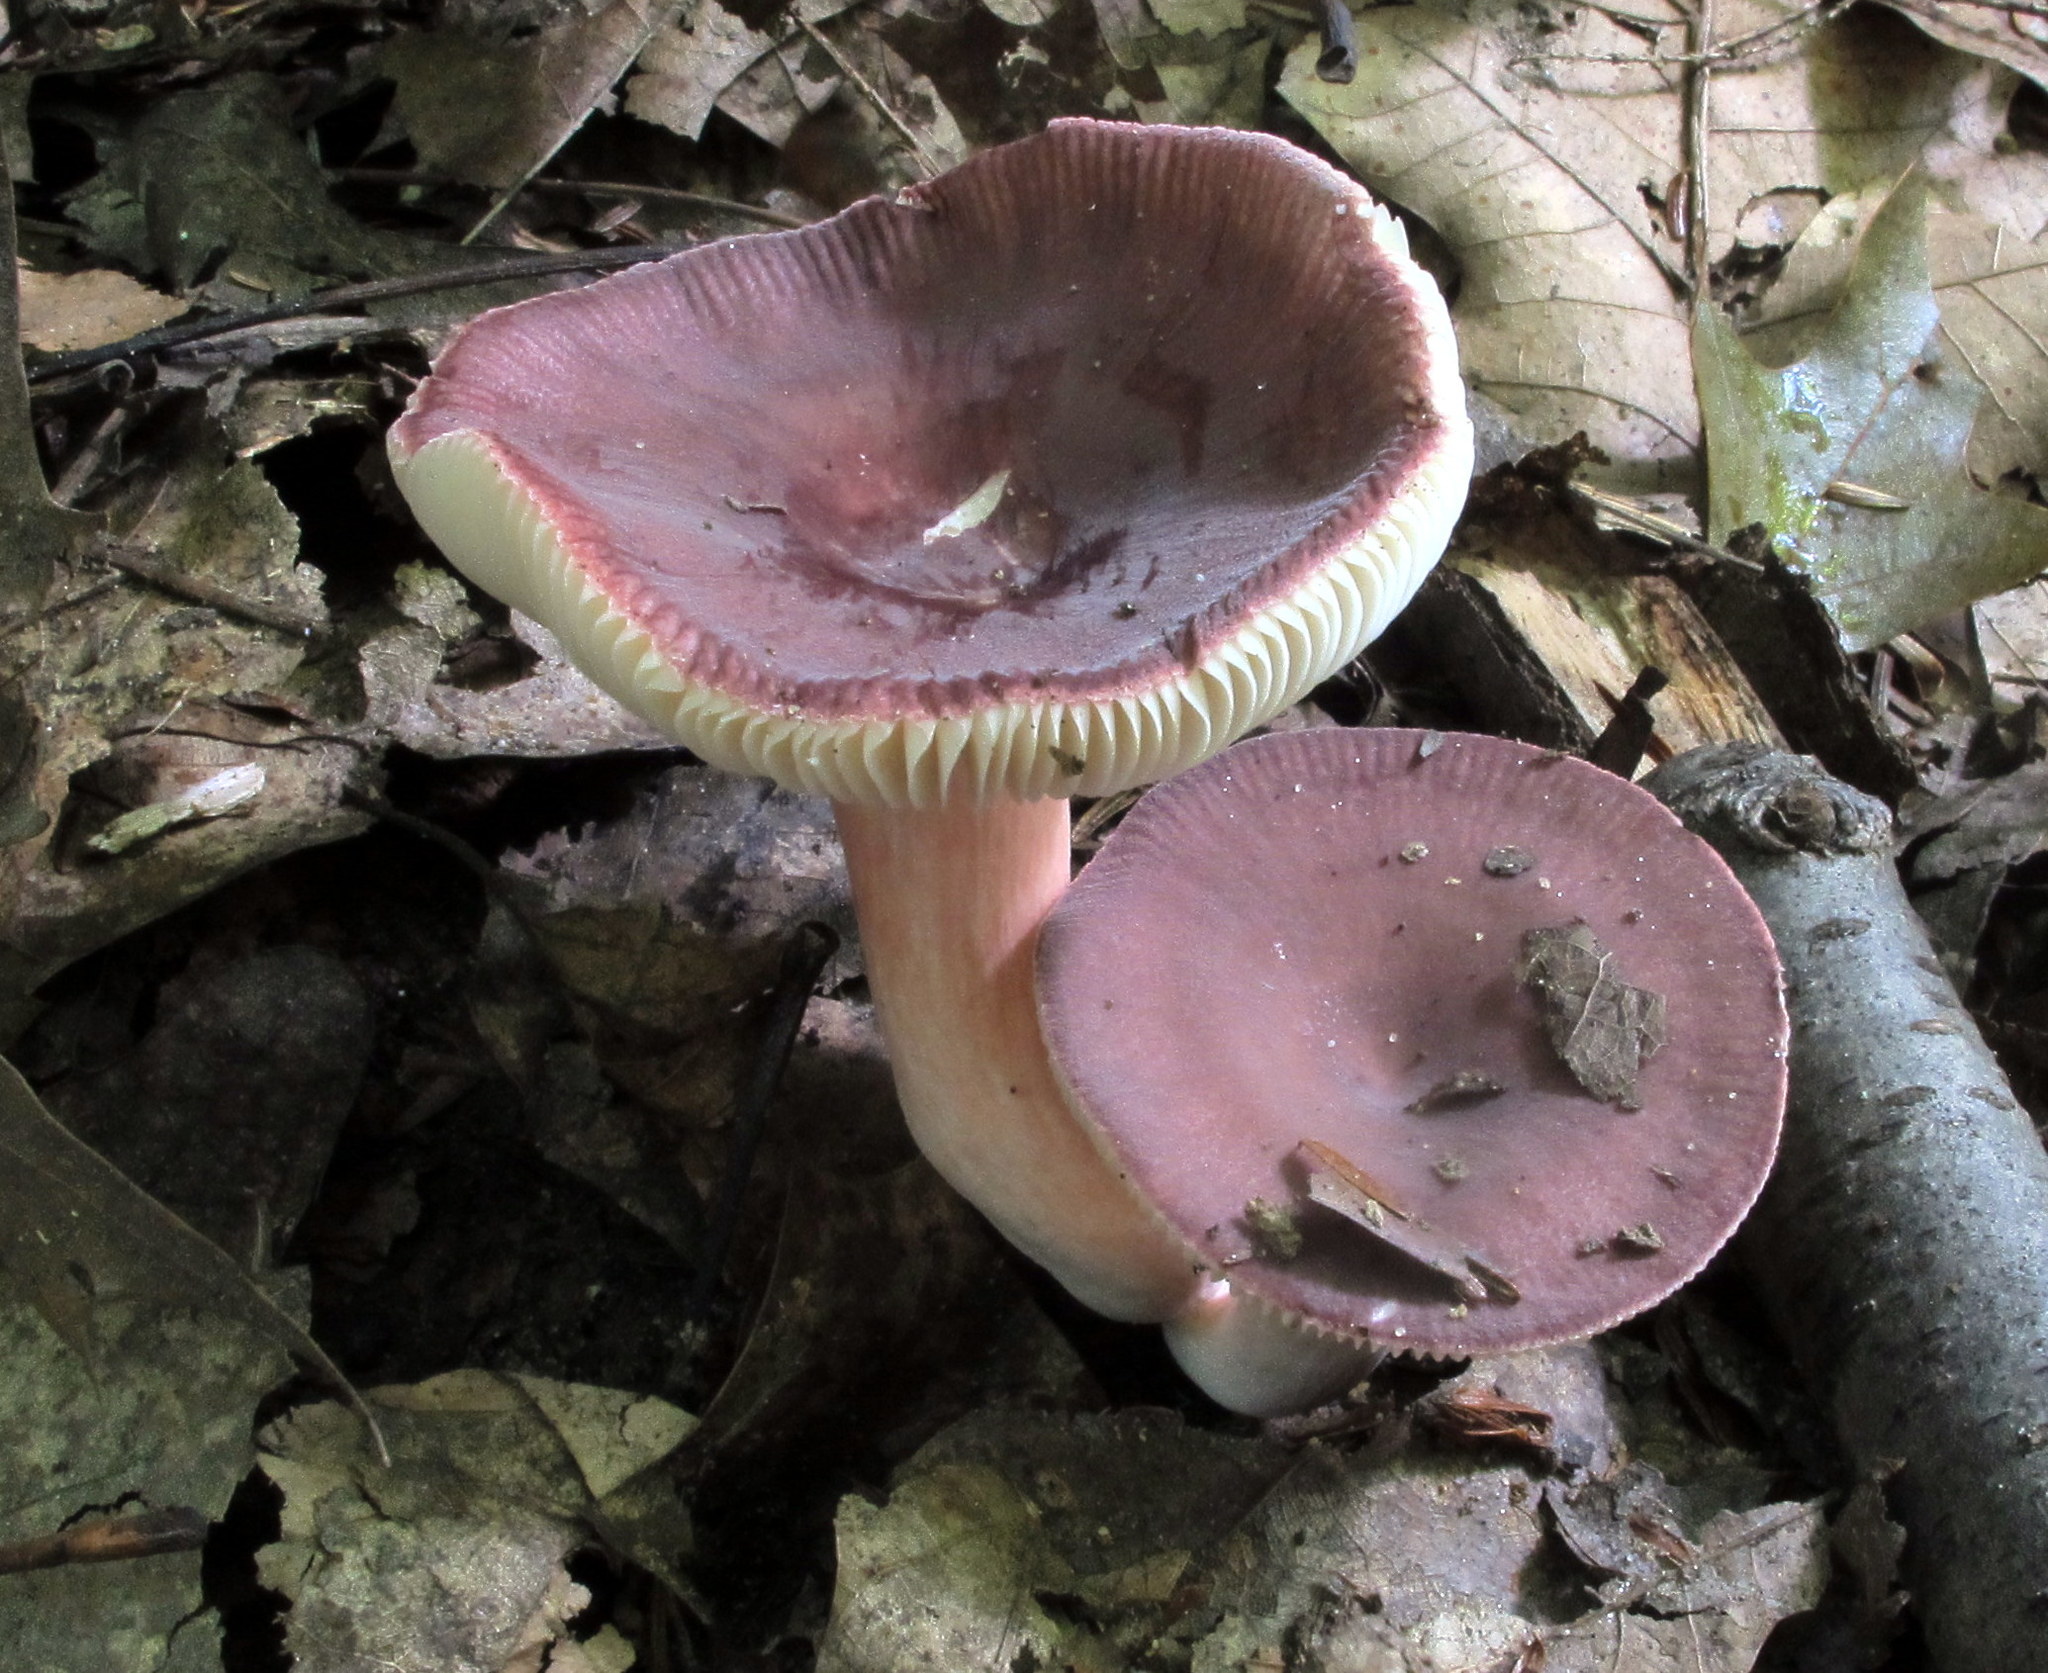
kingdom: Fungi
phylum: Basidiomycota
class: Agaricomycetes
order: Russulales
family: Russulaceae
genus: Russula
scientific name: Russula mariae
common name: Purple-bloom russula
